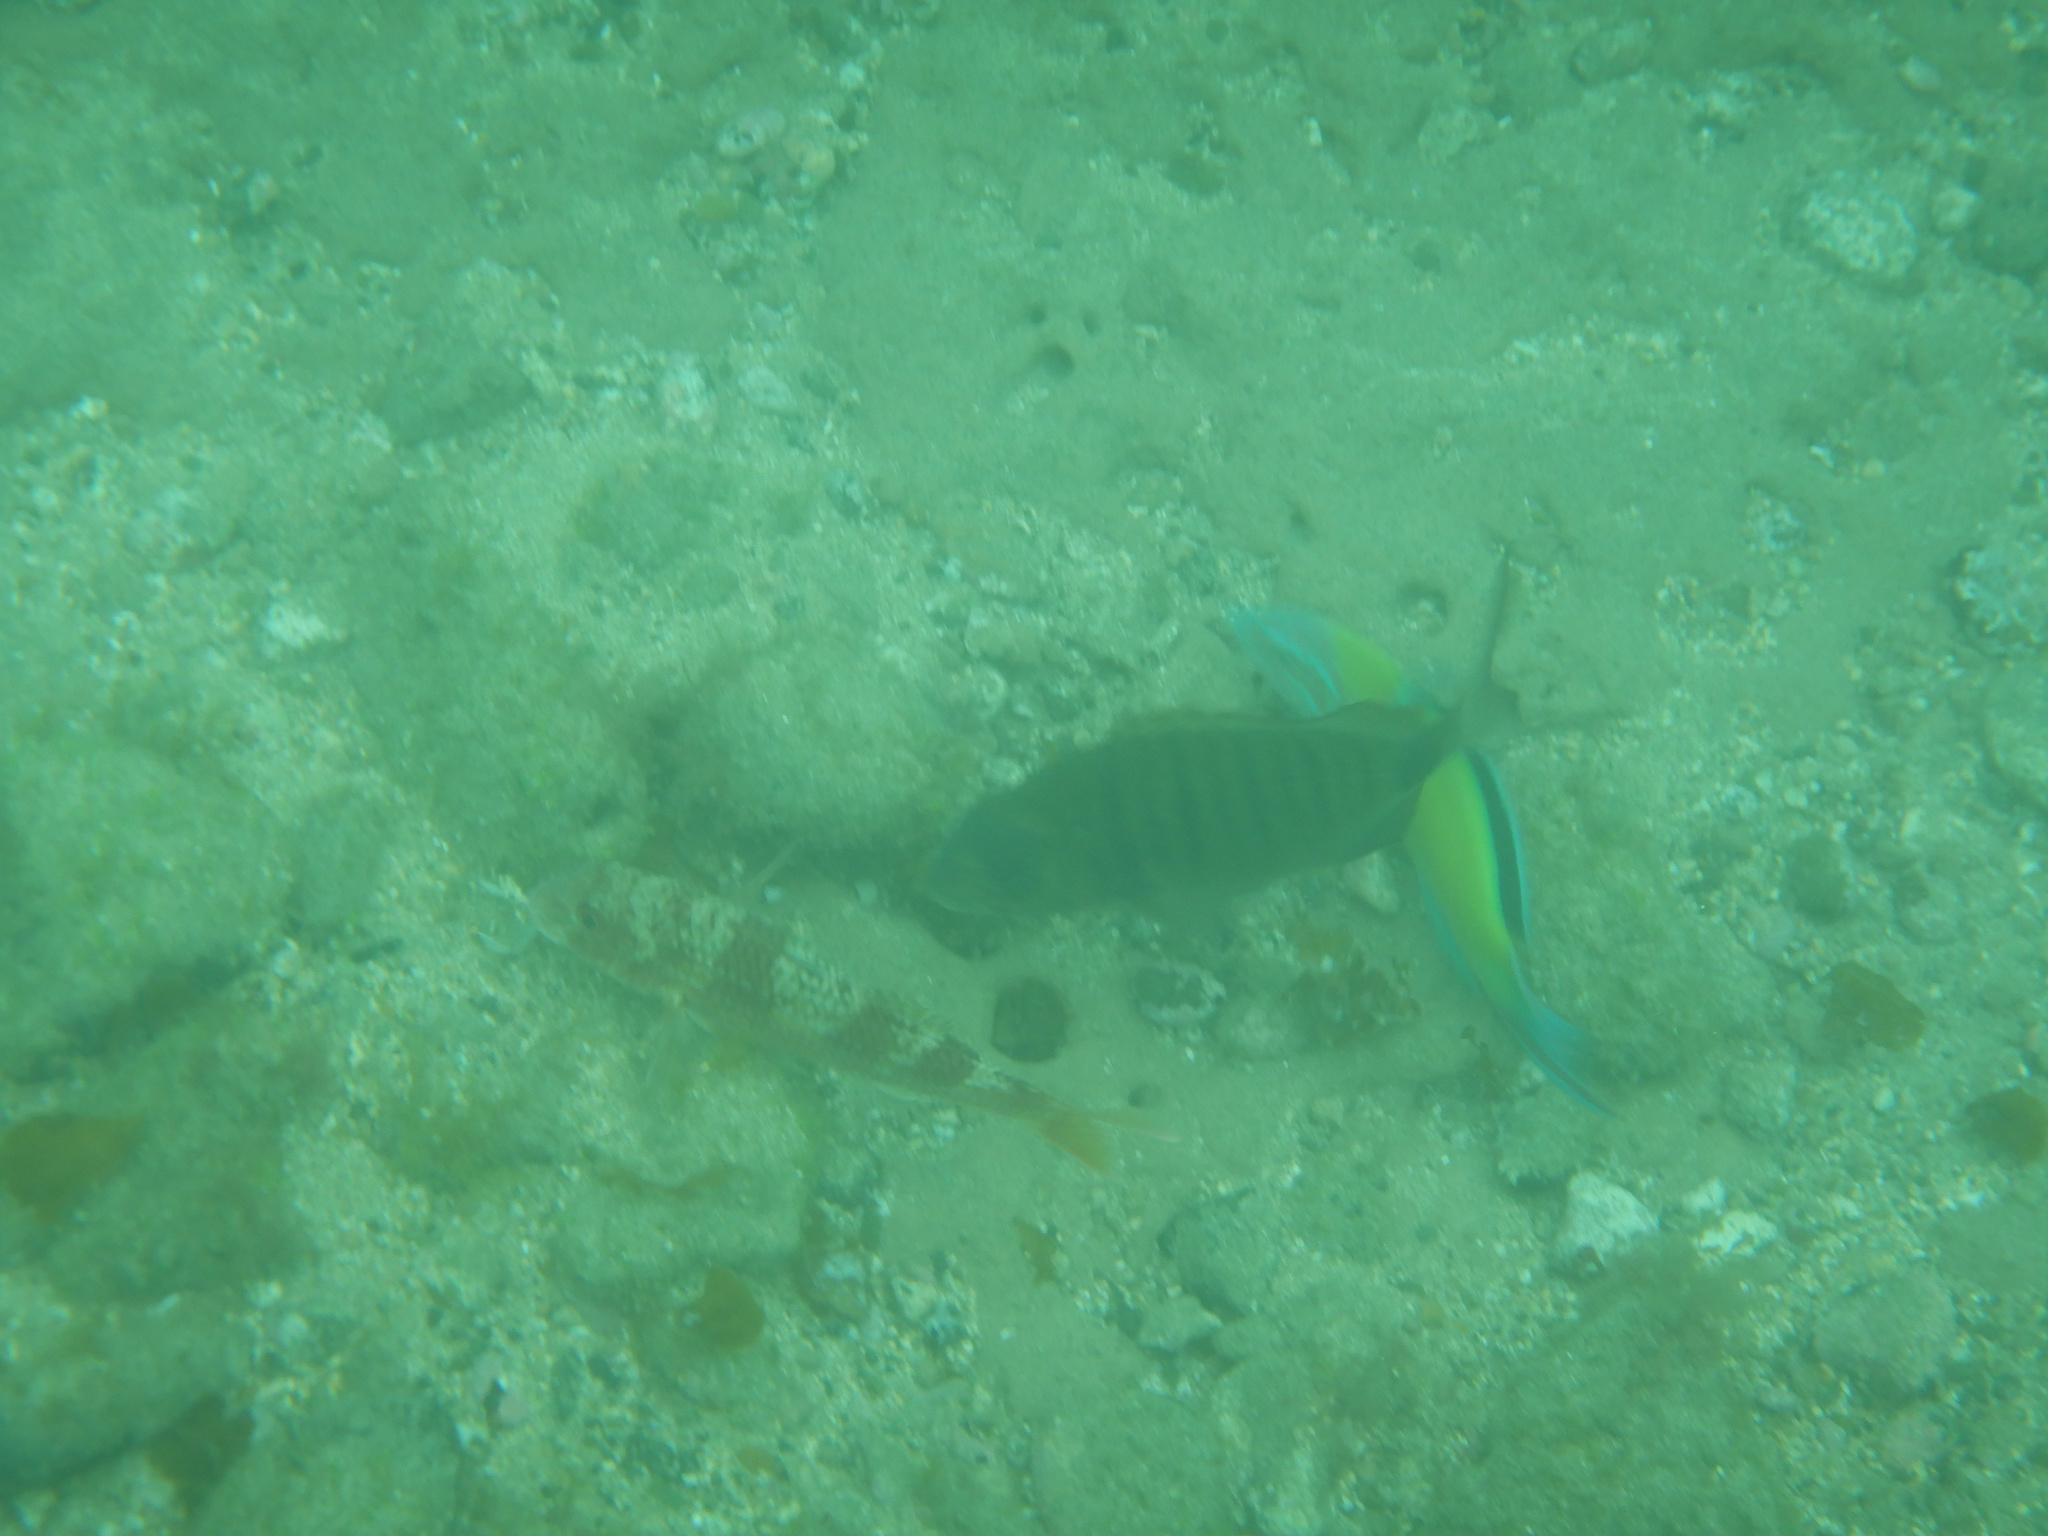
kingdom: Animalia
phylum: Chordata
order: Perciformes
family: Sparidae
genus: Diplodus
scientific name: Diplodus cadenati
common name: Moroccan white seabream
